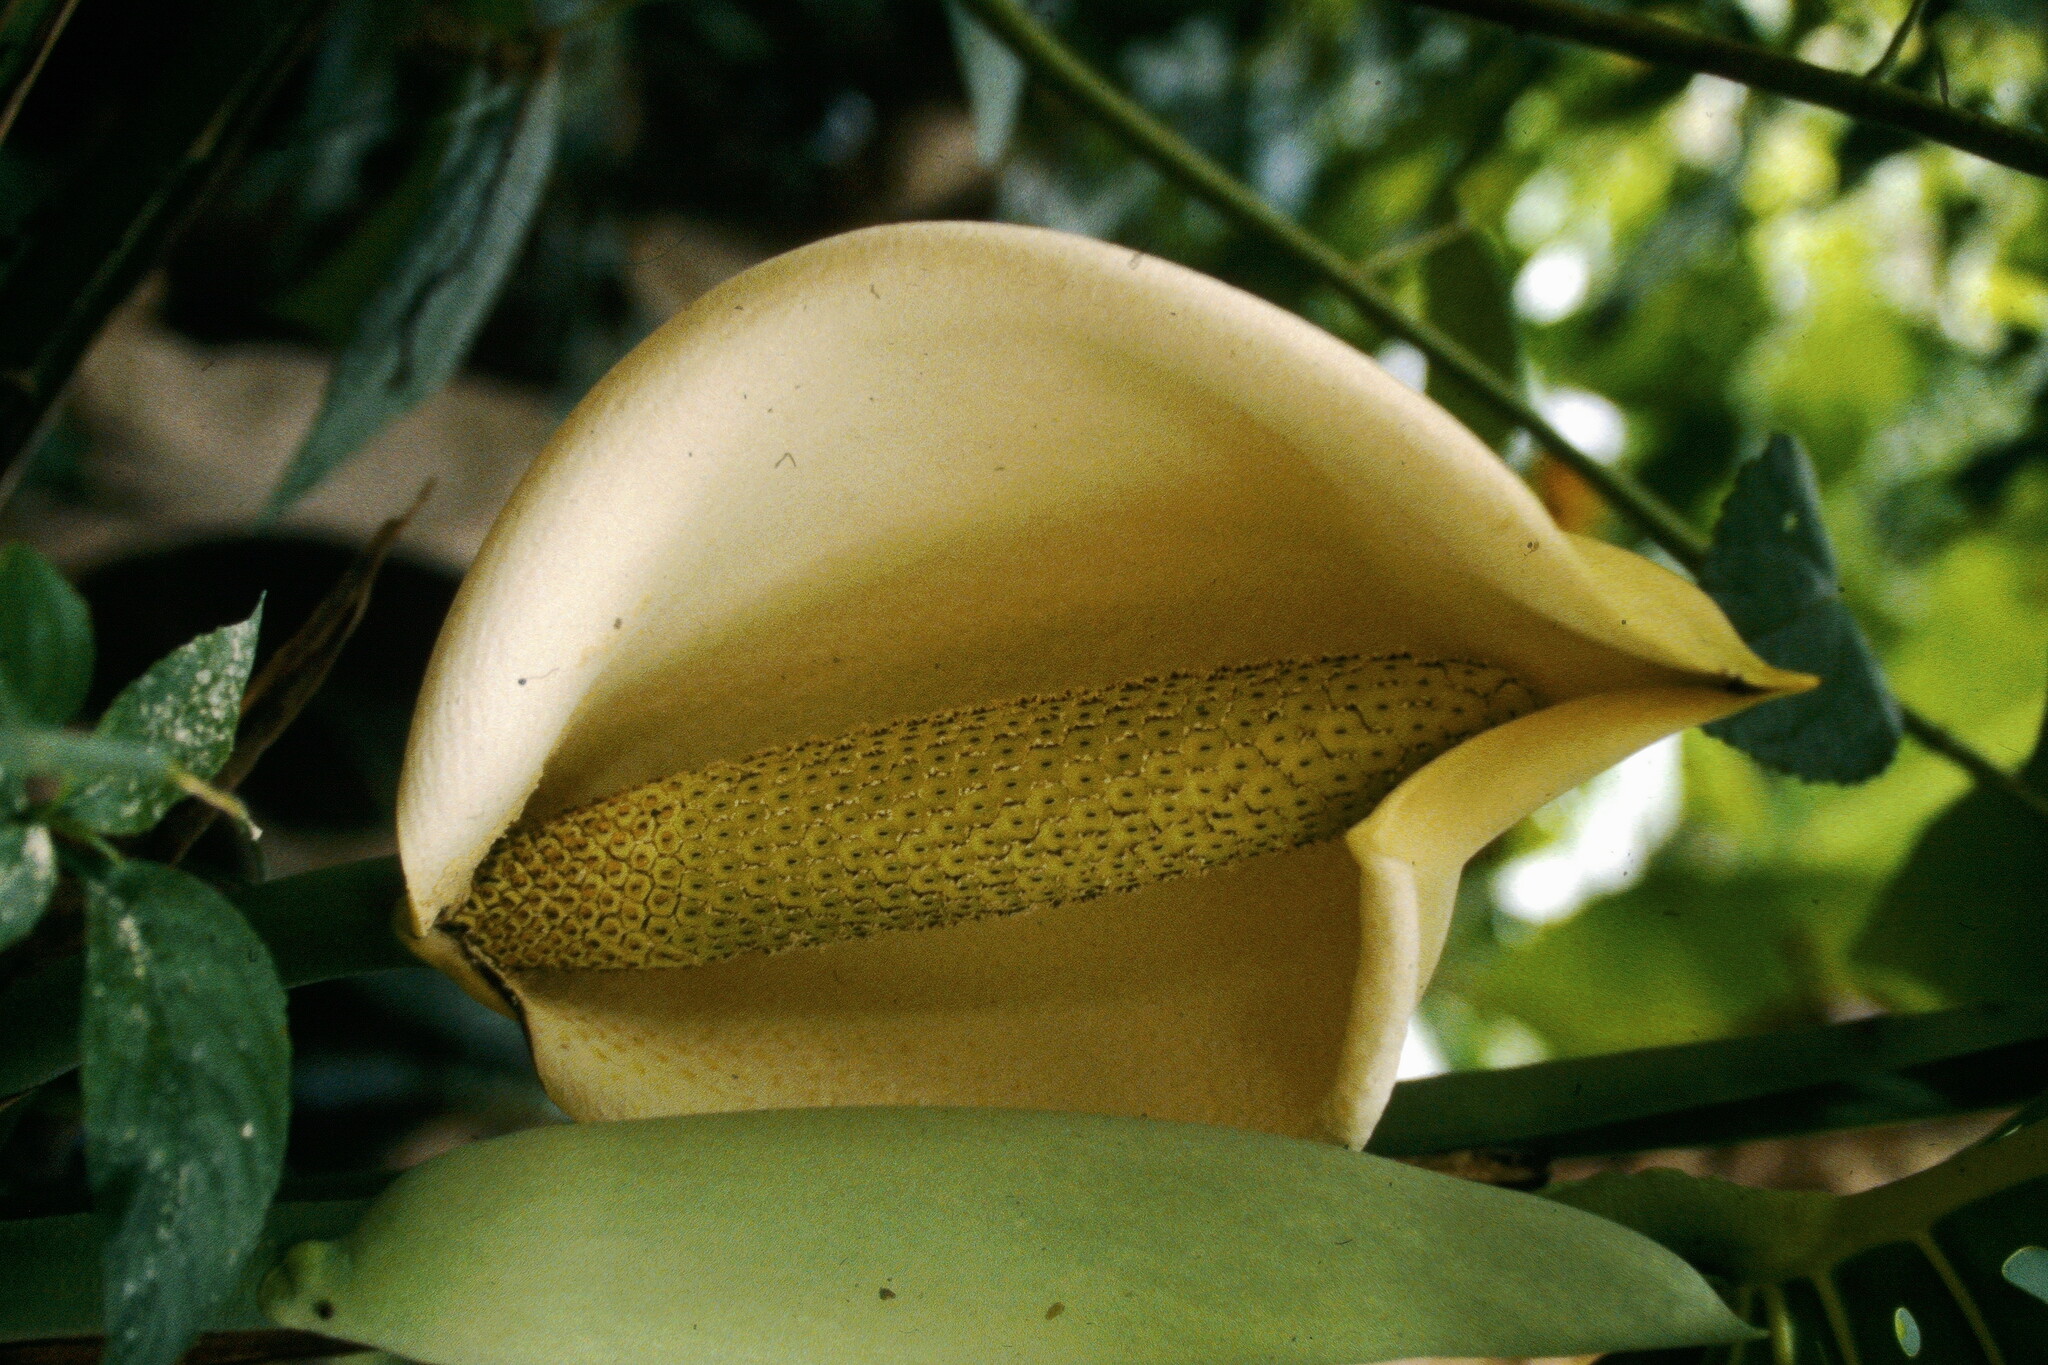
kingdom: Plantae
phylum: Tracheophyta
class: Liliopsida
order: Alismatales
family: Araceae
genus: Monstera
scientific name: Monstera deliciosa
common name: Cut-leaf-philodendron
